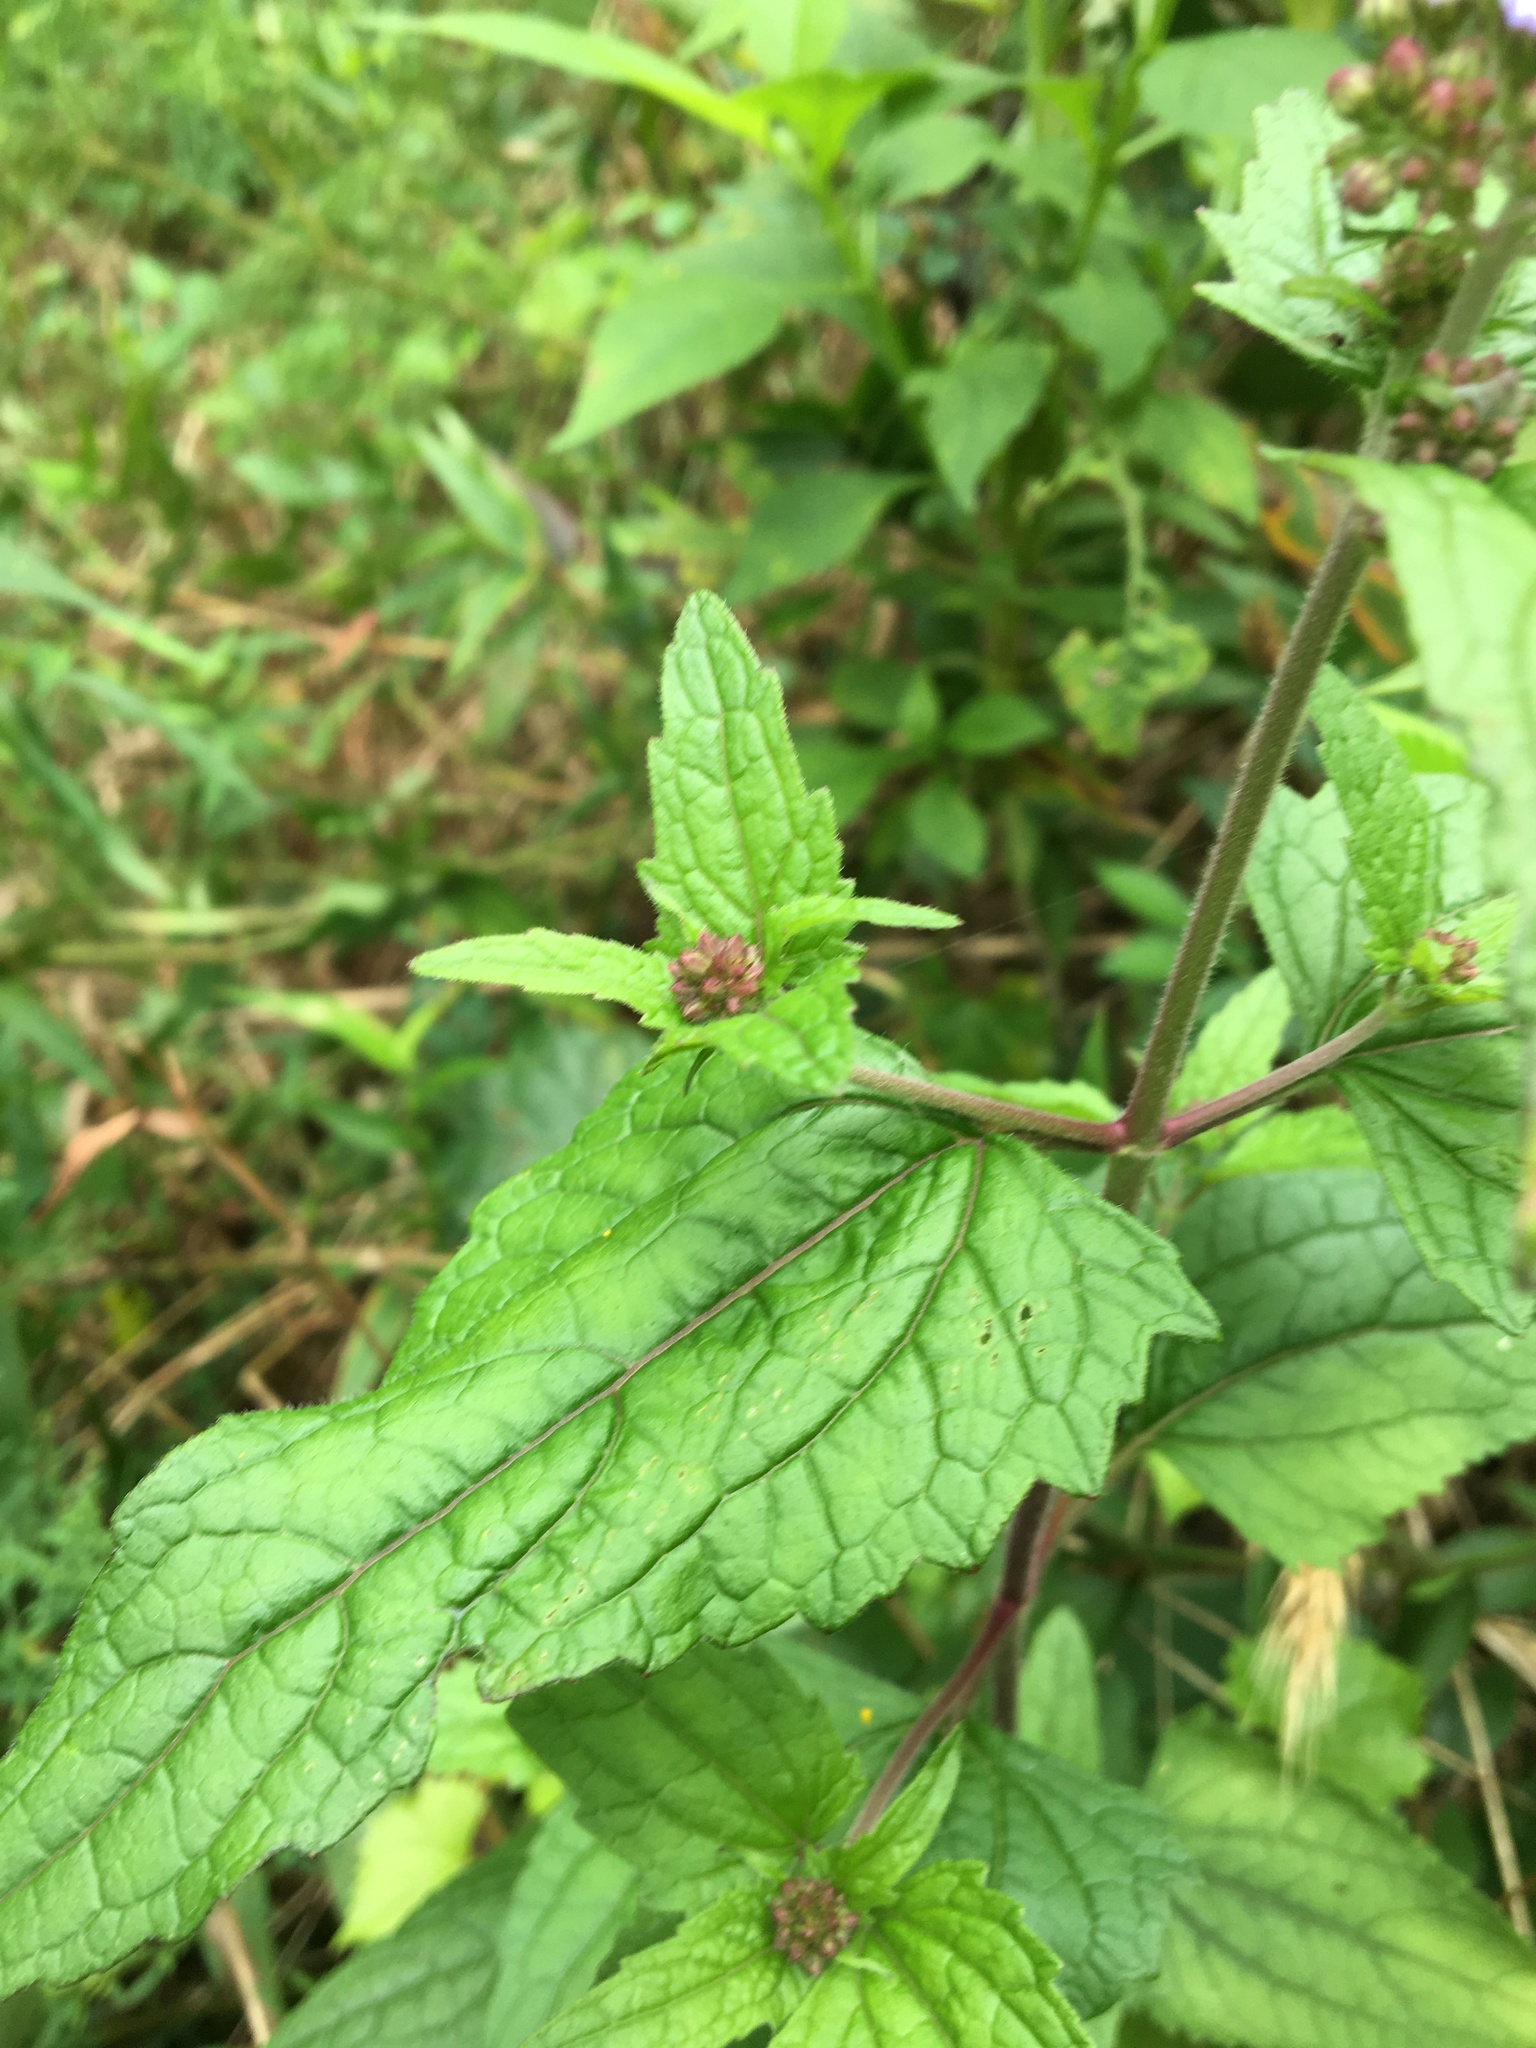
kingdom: Plantae
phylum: Tracheophyta
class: Magnoliopsida
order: Asterales
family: Asteraceae
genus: Conoclinium
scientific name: Conoclinium coelestinum
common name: Blue mistflower
